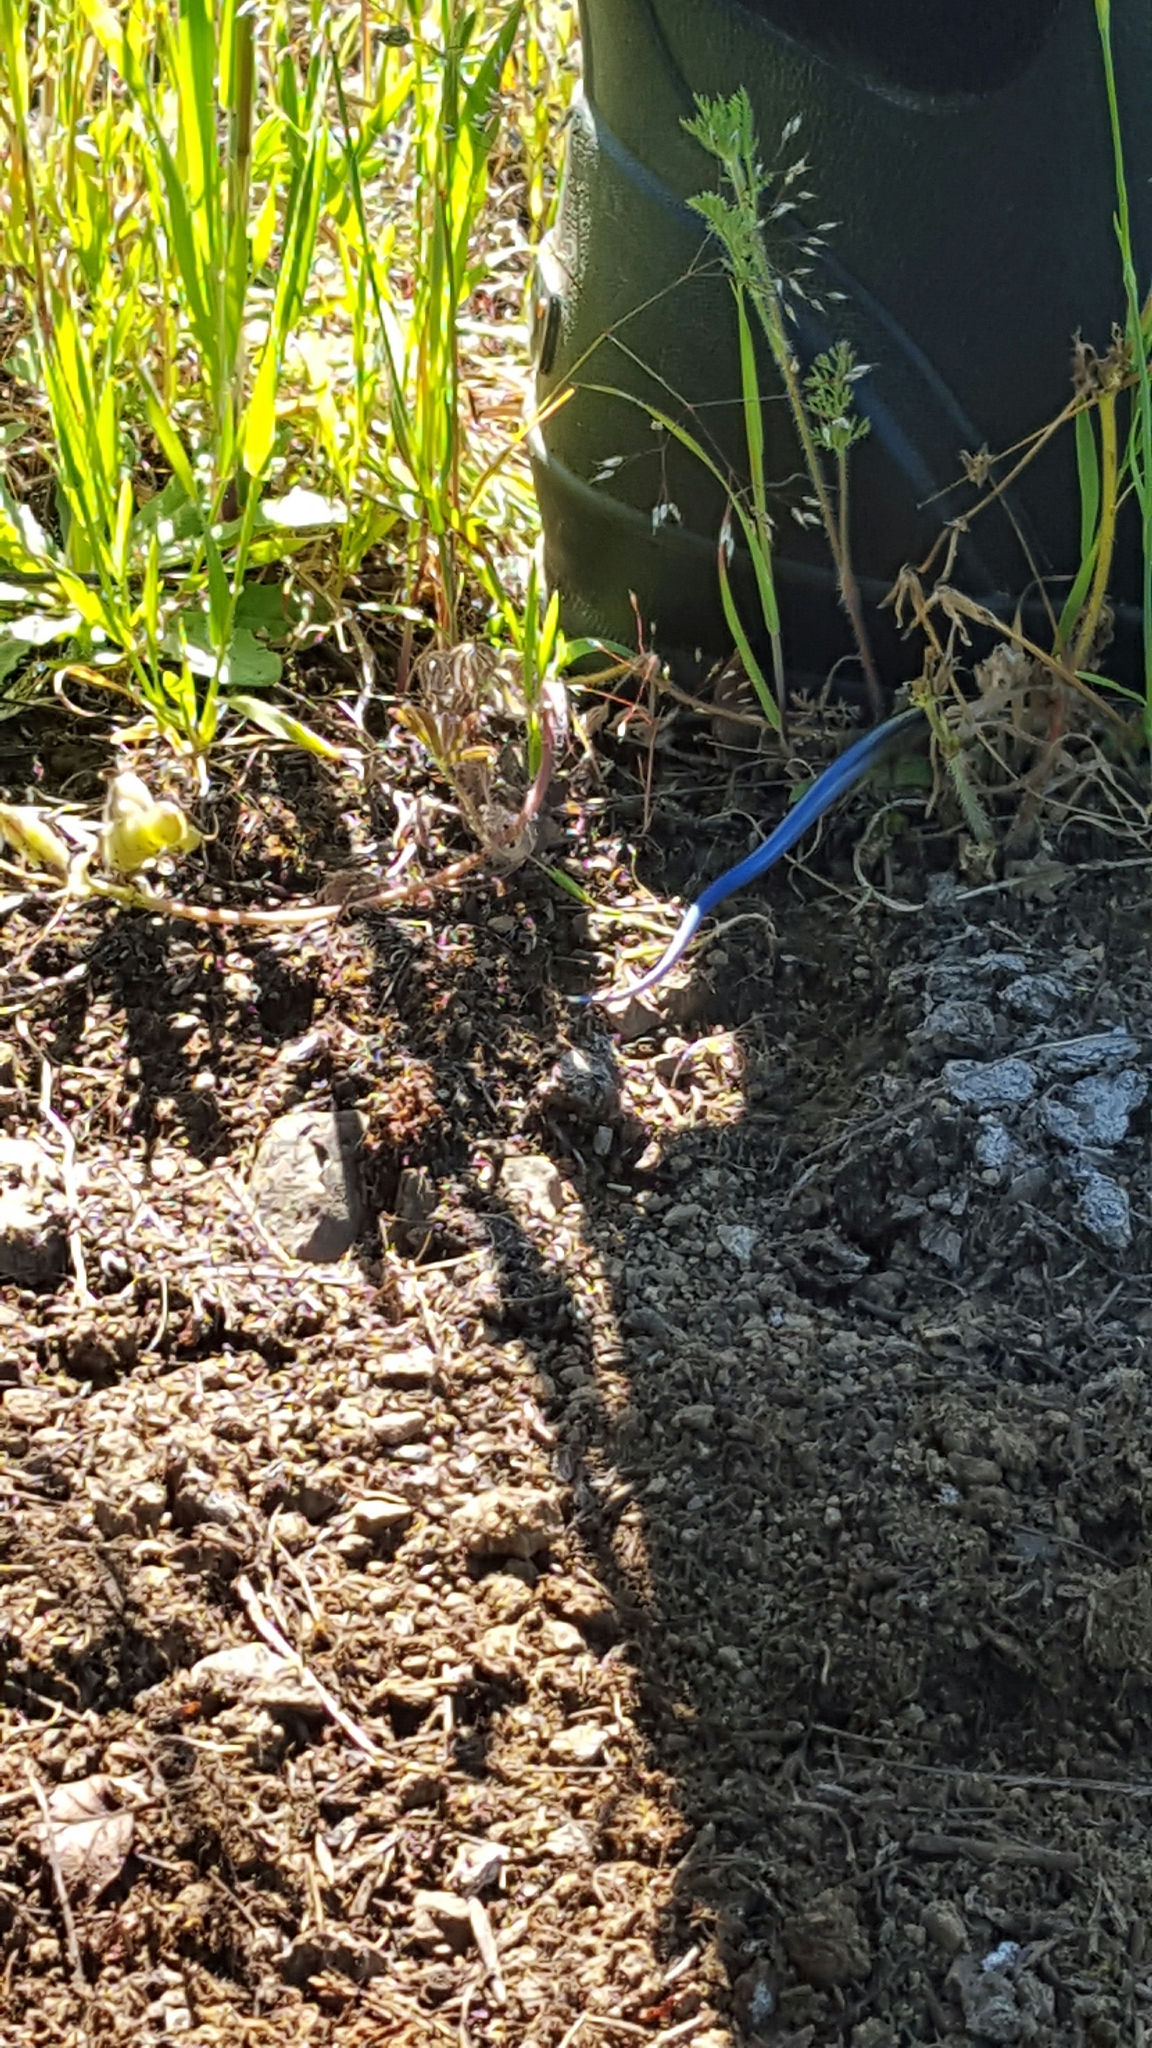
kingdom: Animalia
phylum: Chordata
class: Squamata
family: Scincidae
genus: Plestiodon
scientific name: Plestiodon skiltonianus
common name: Coronado island skink [interparietalis]
